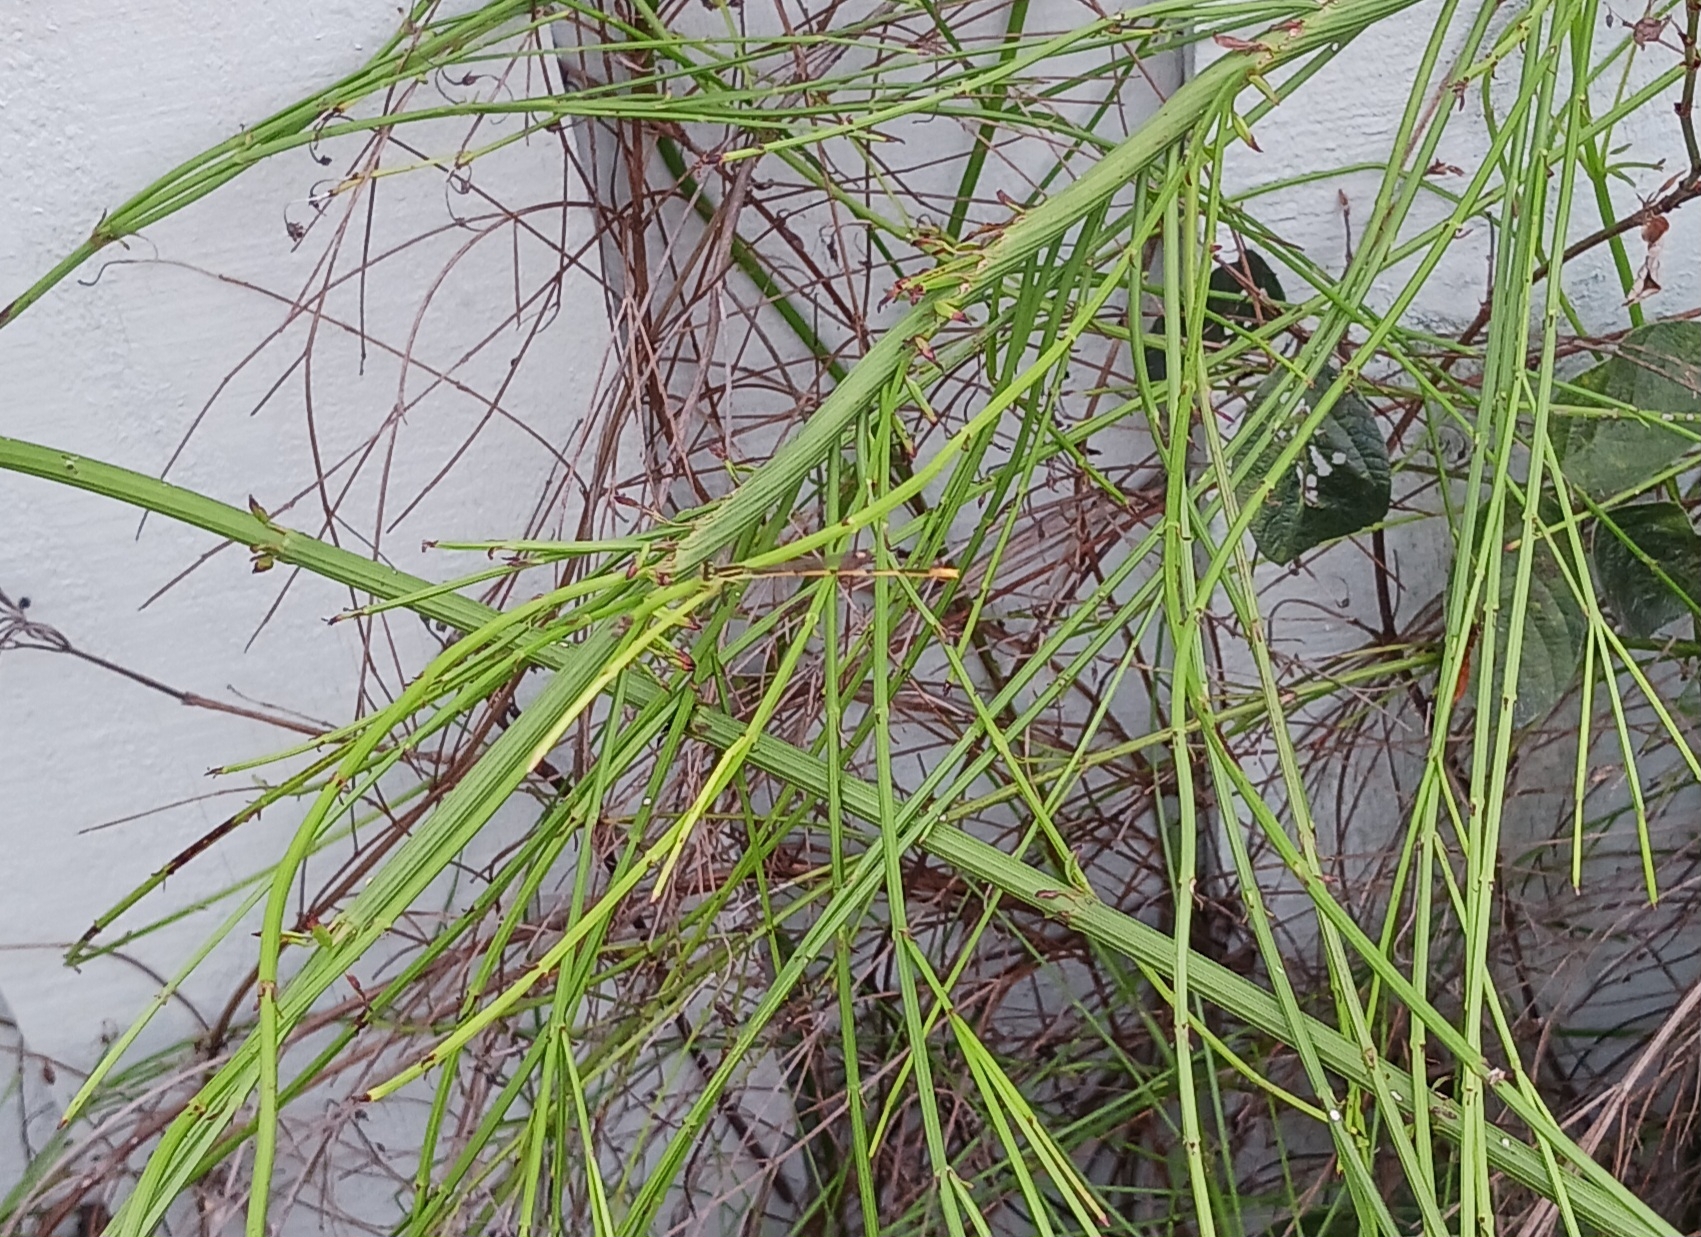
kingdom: Animalia
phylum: Arthropoda
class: Insecta
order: Odonata
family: Coenagrionidae
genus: Ischnura
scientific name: Ischnura hastata
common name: Citrine forktail
